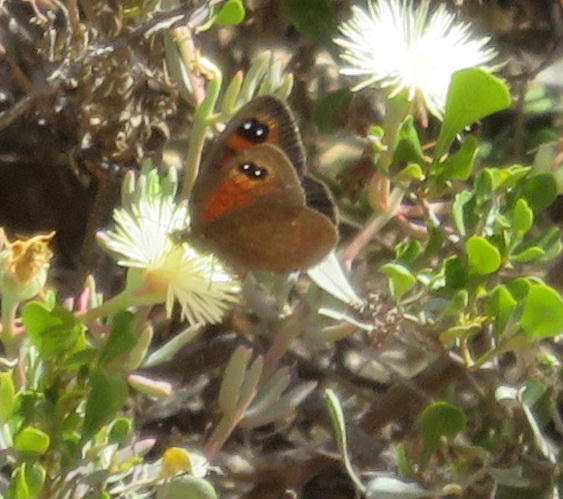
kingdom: Animalia
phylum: Arthropoda
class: Insecta
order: Lepidoptera
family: Nymphalidae
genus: Tarsocera
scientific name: Tarsocera fulvina
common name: Karoo widow
